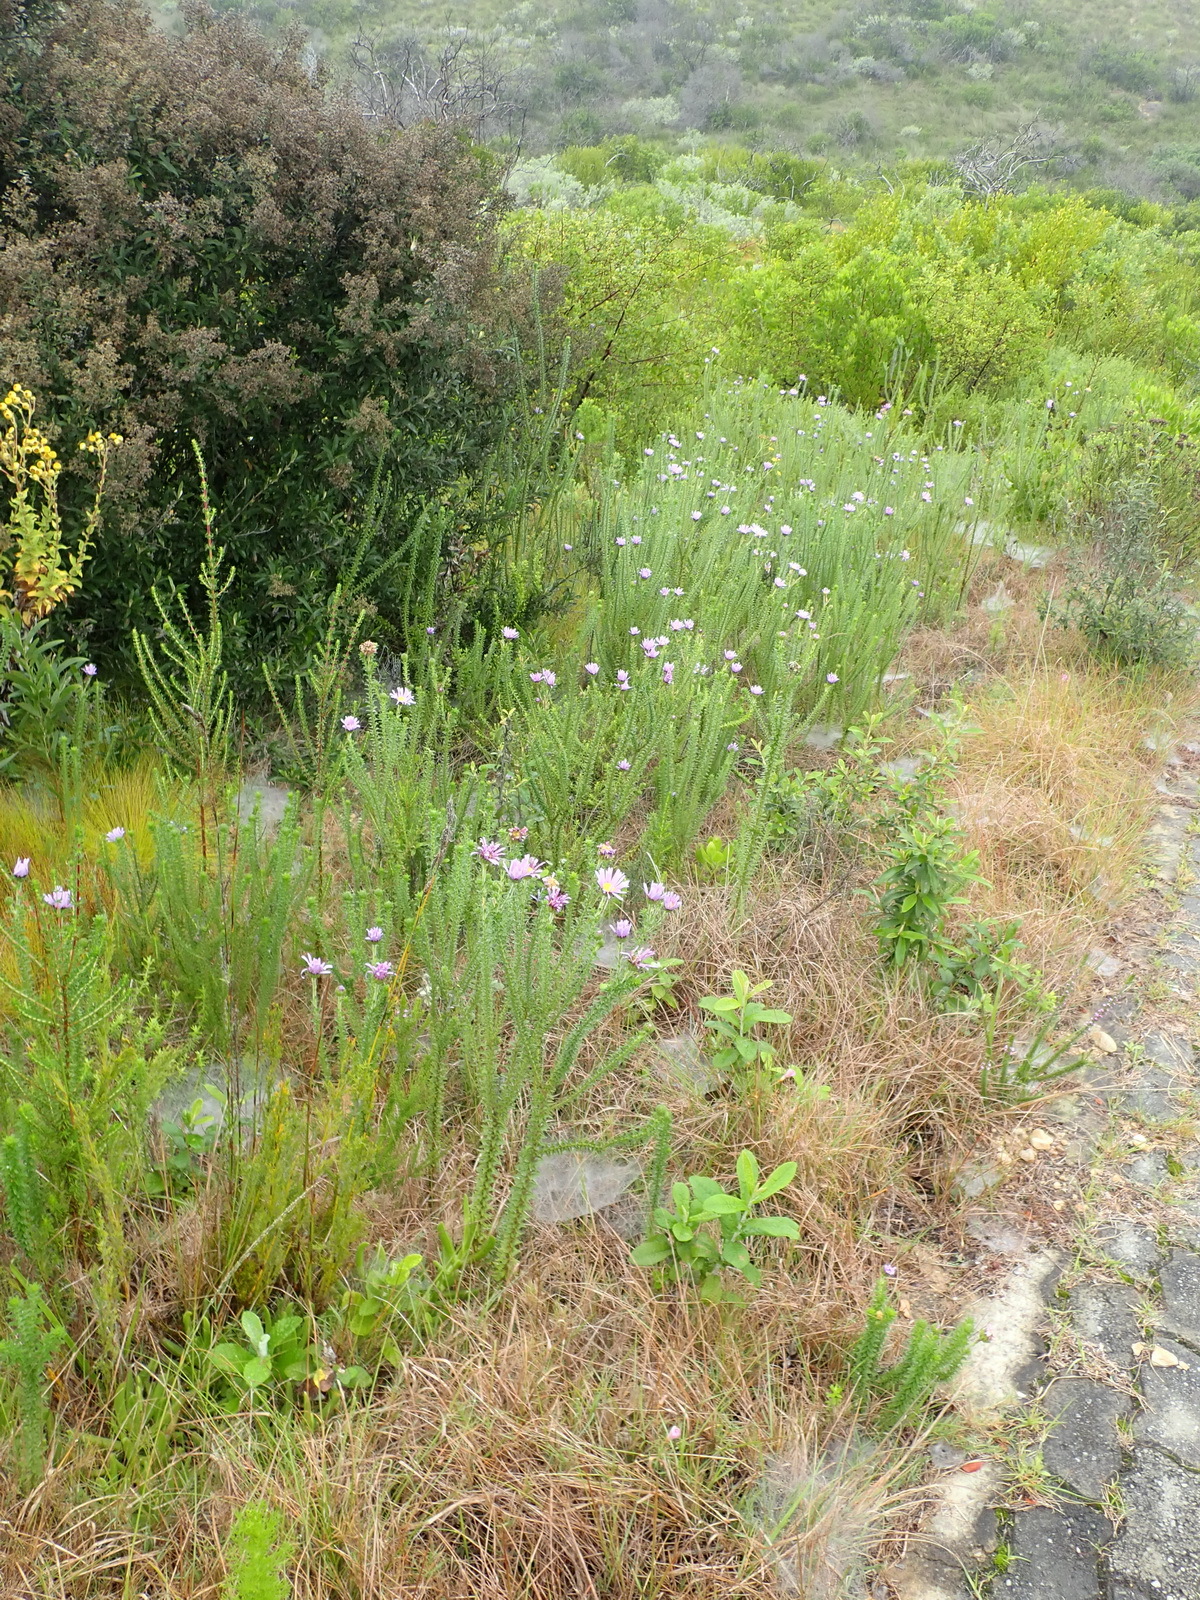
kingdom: Plantae
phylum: Tracheophyta
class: Magnoliopsida
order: Asterales
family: Asteraceae
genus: Felicia
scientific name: Felicia echinata
